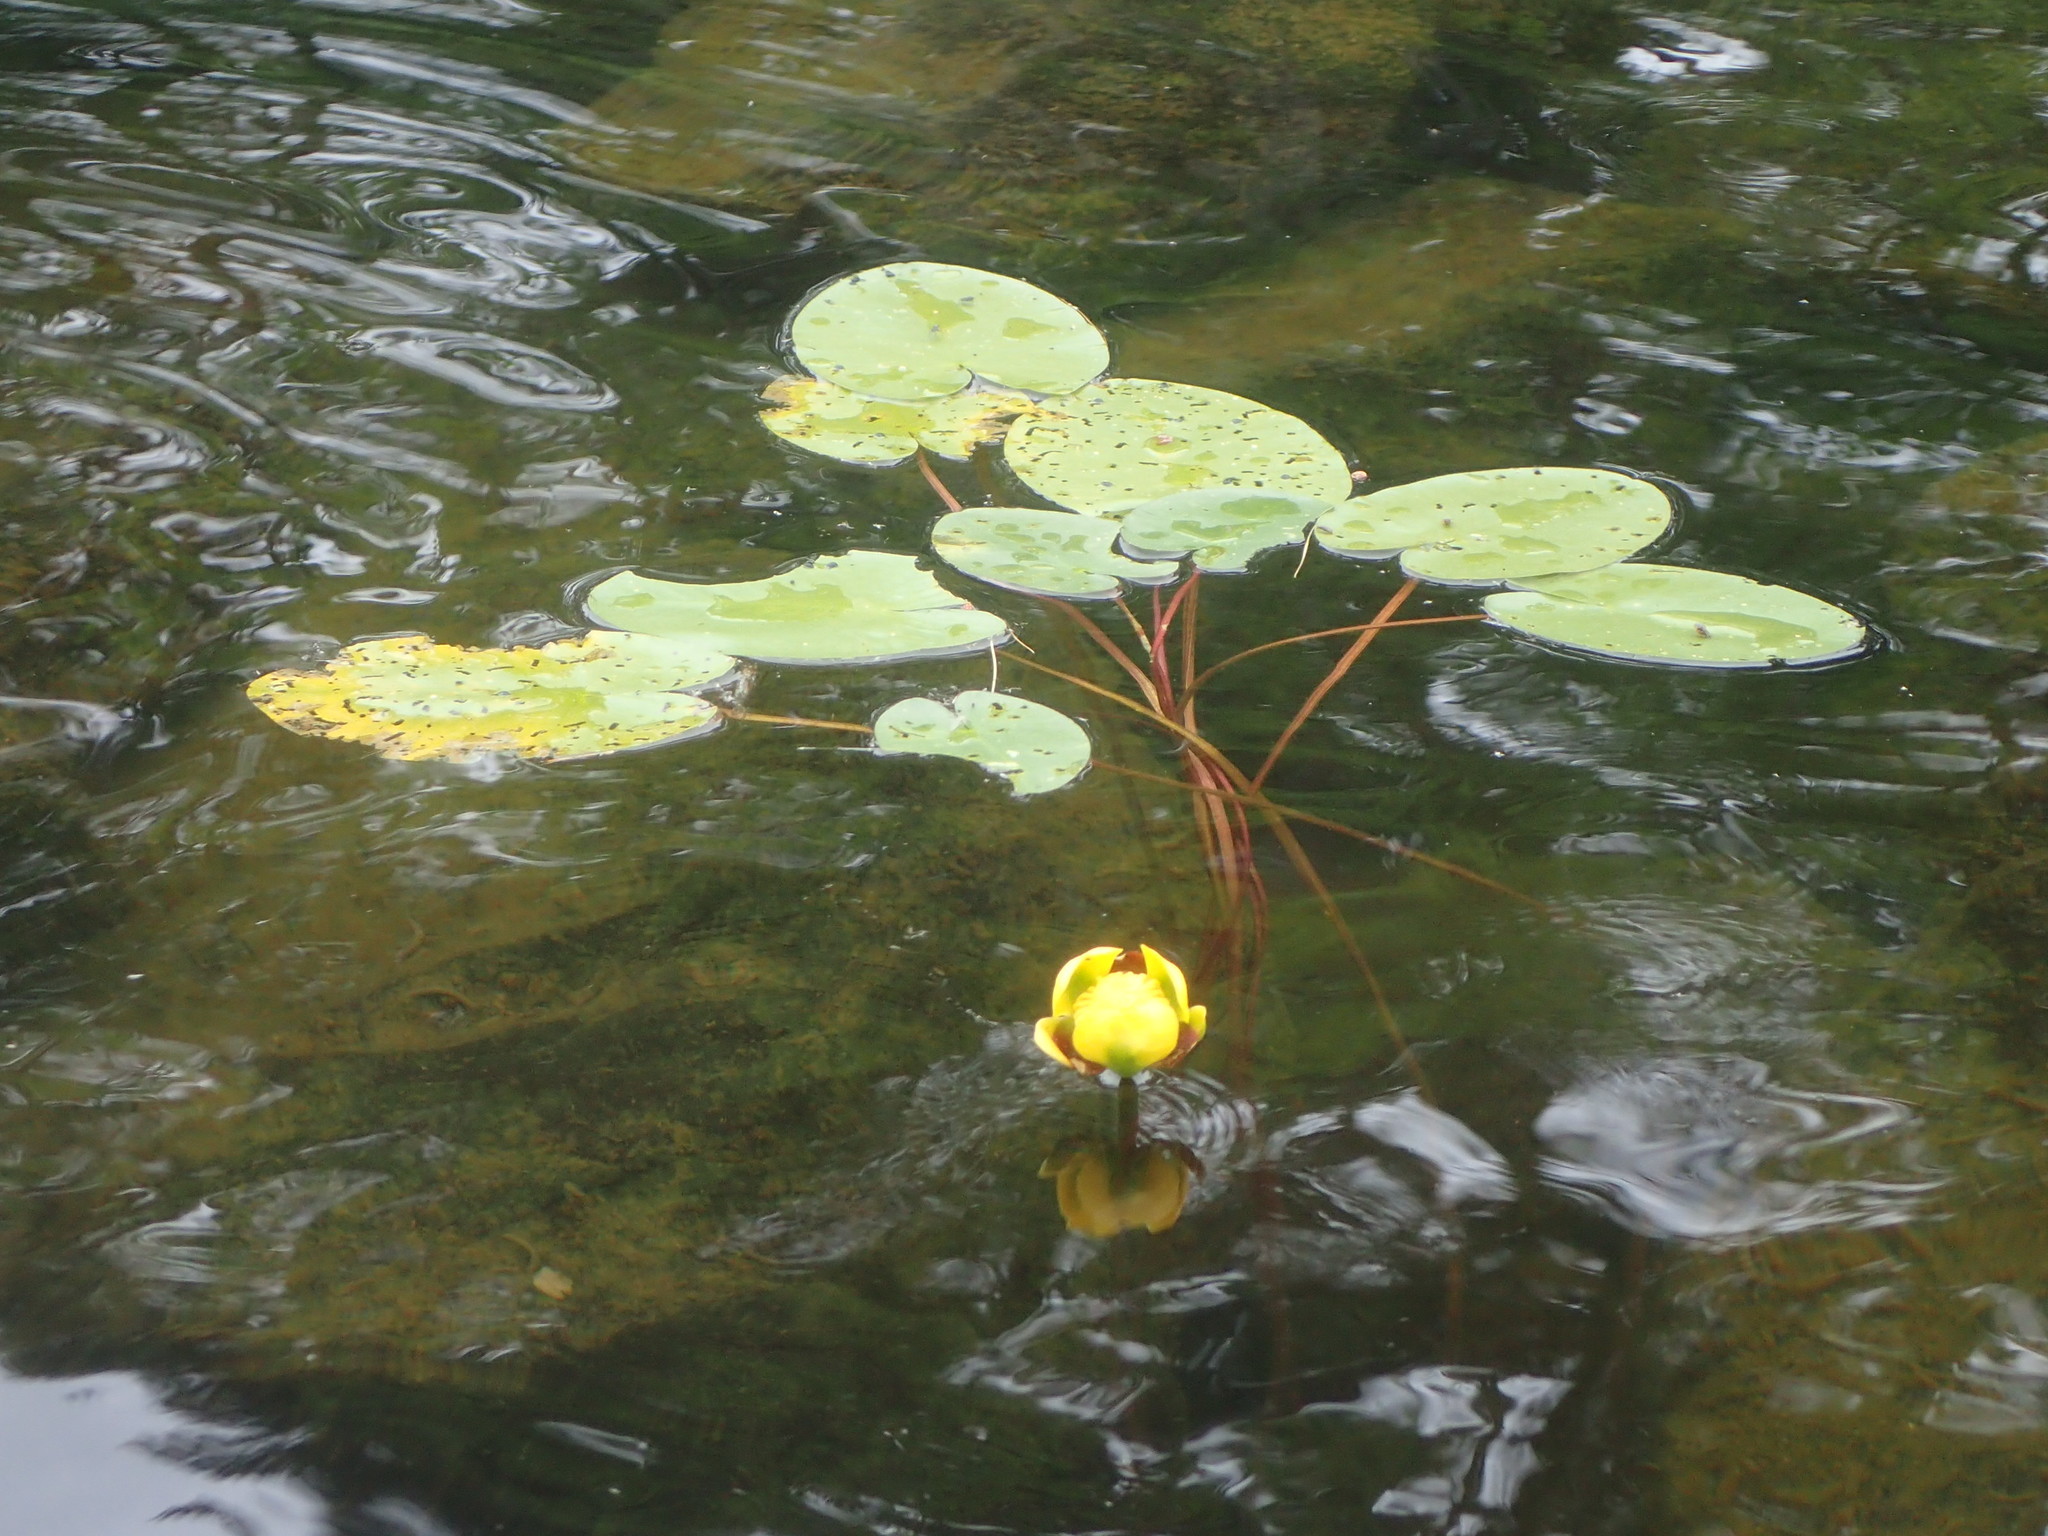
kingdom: Plantae
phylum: Tracheophyta
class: Magnoliopsida
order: Nymphaeales
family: Nymphaeaceae
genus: Nuphar
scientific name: Nuphar variegata
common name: Beaver-root
